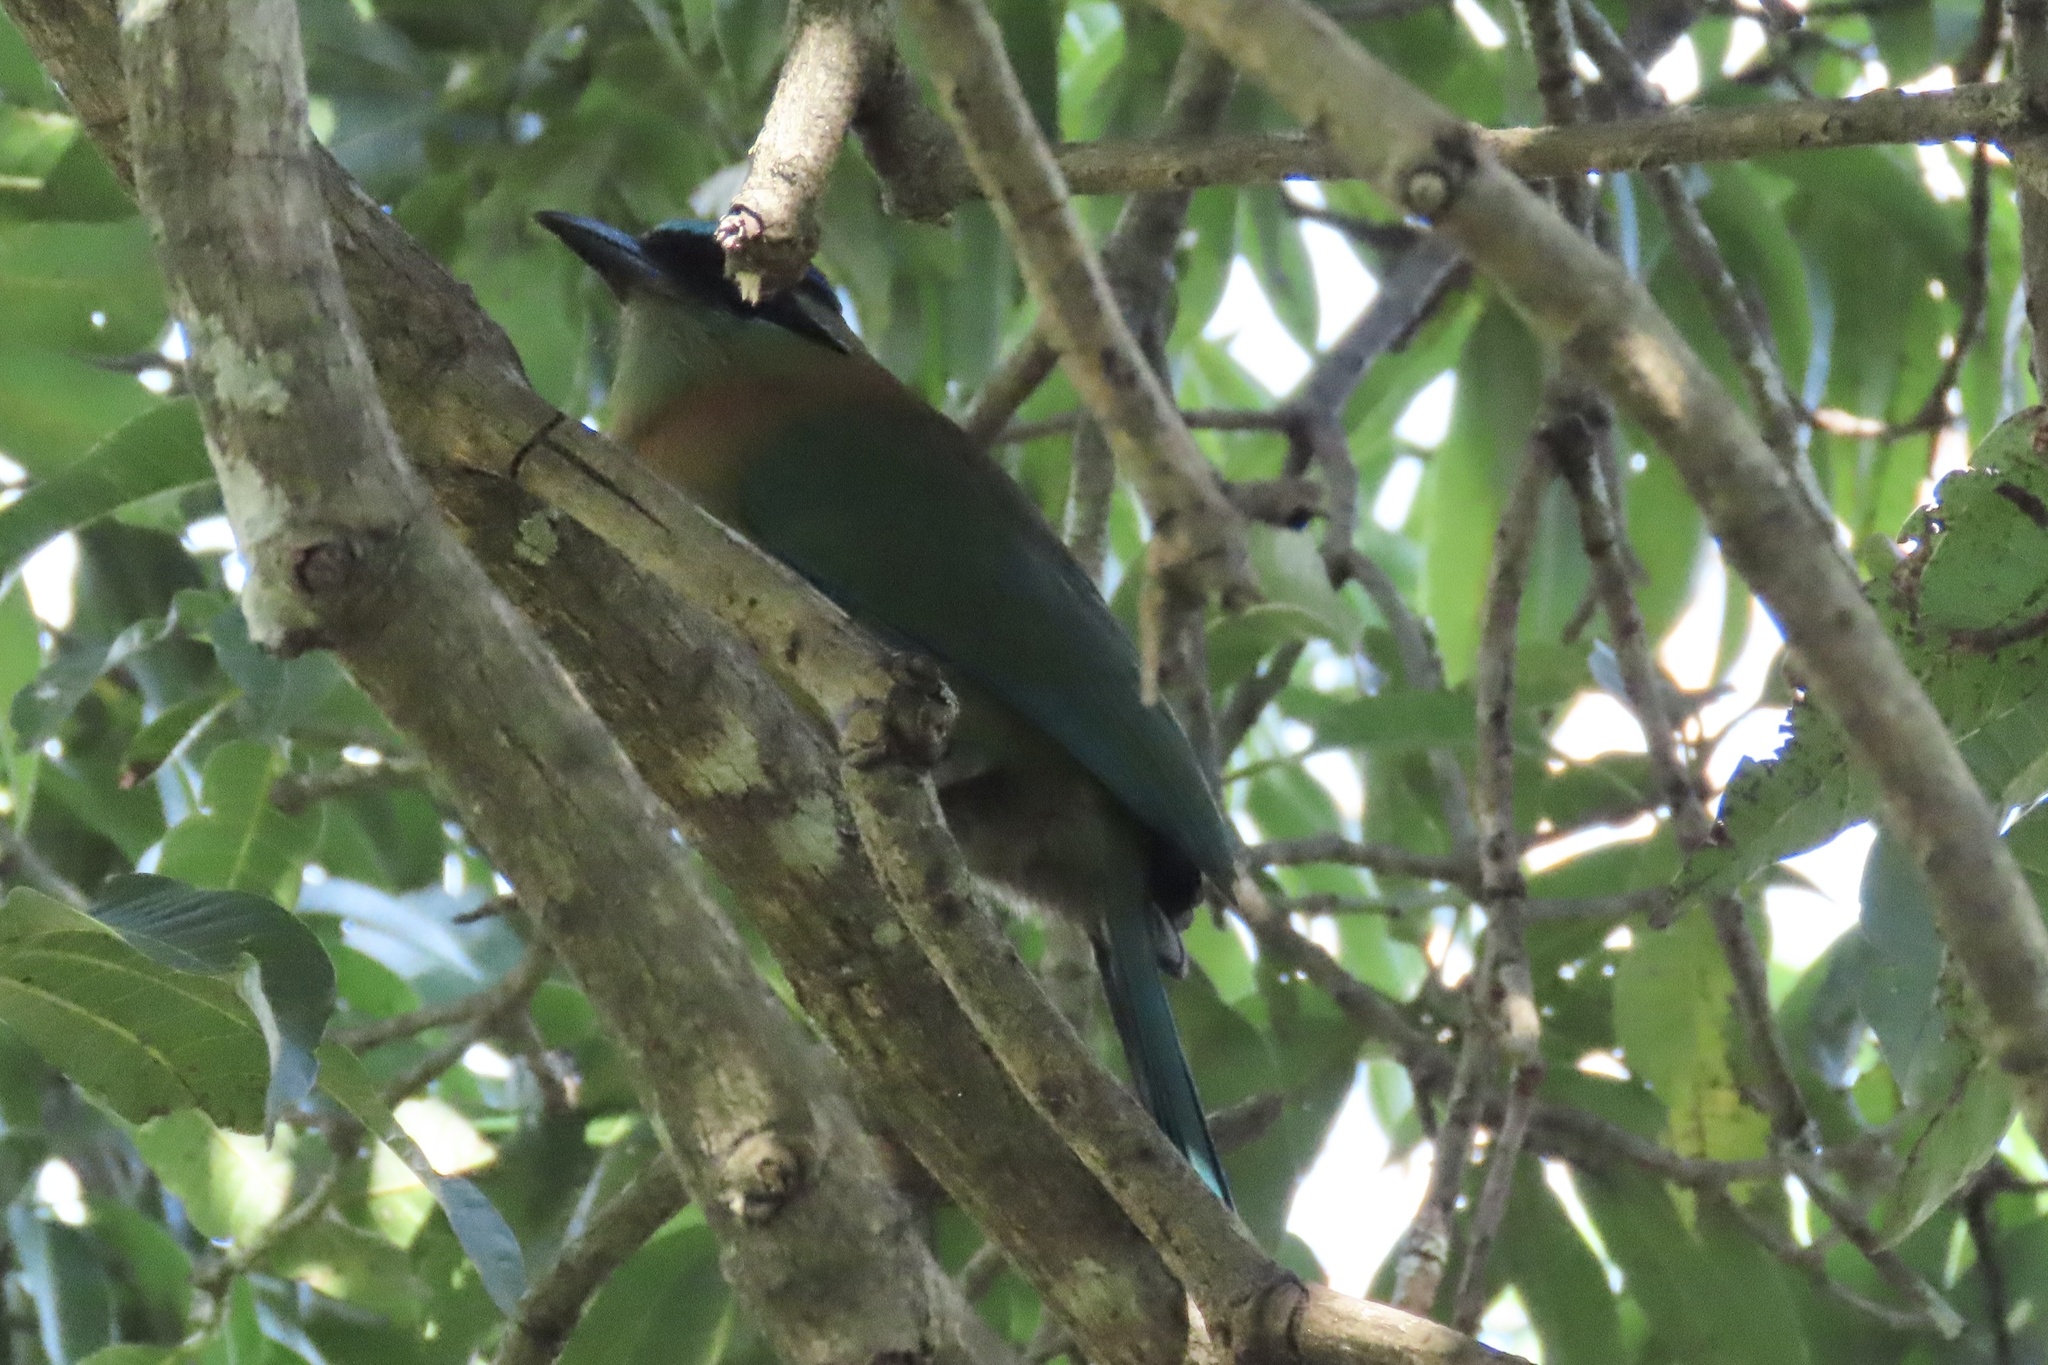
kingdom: Animalia
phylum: Chordata
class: Aves
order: Coraciiformes
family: Momotidae
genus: Momotus
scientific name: Momotus lessonii
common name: Lesson's motmot
